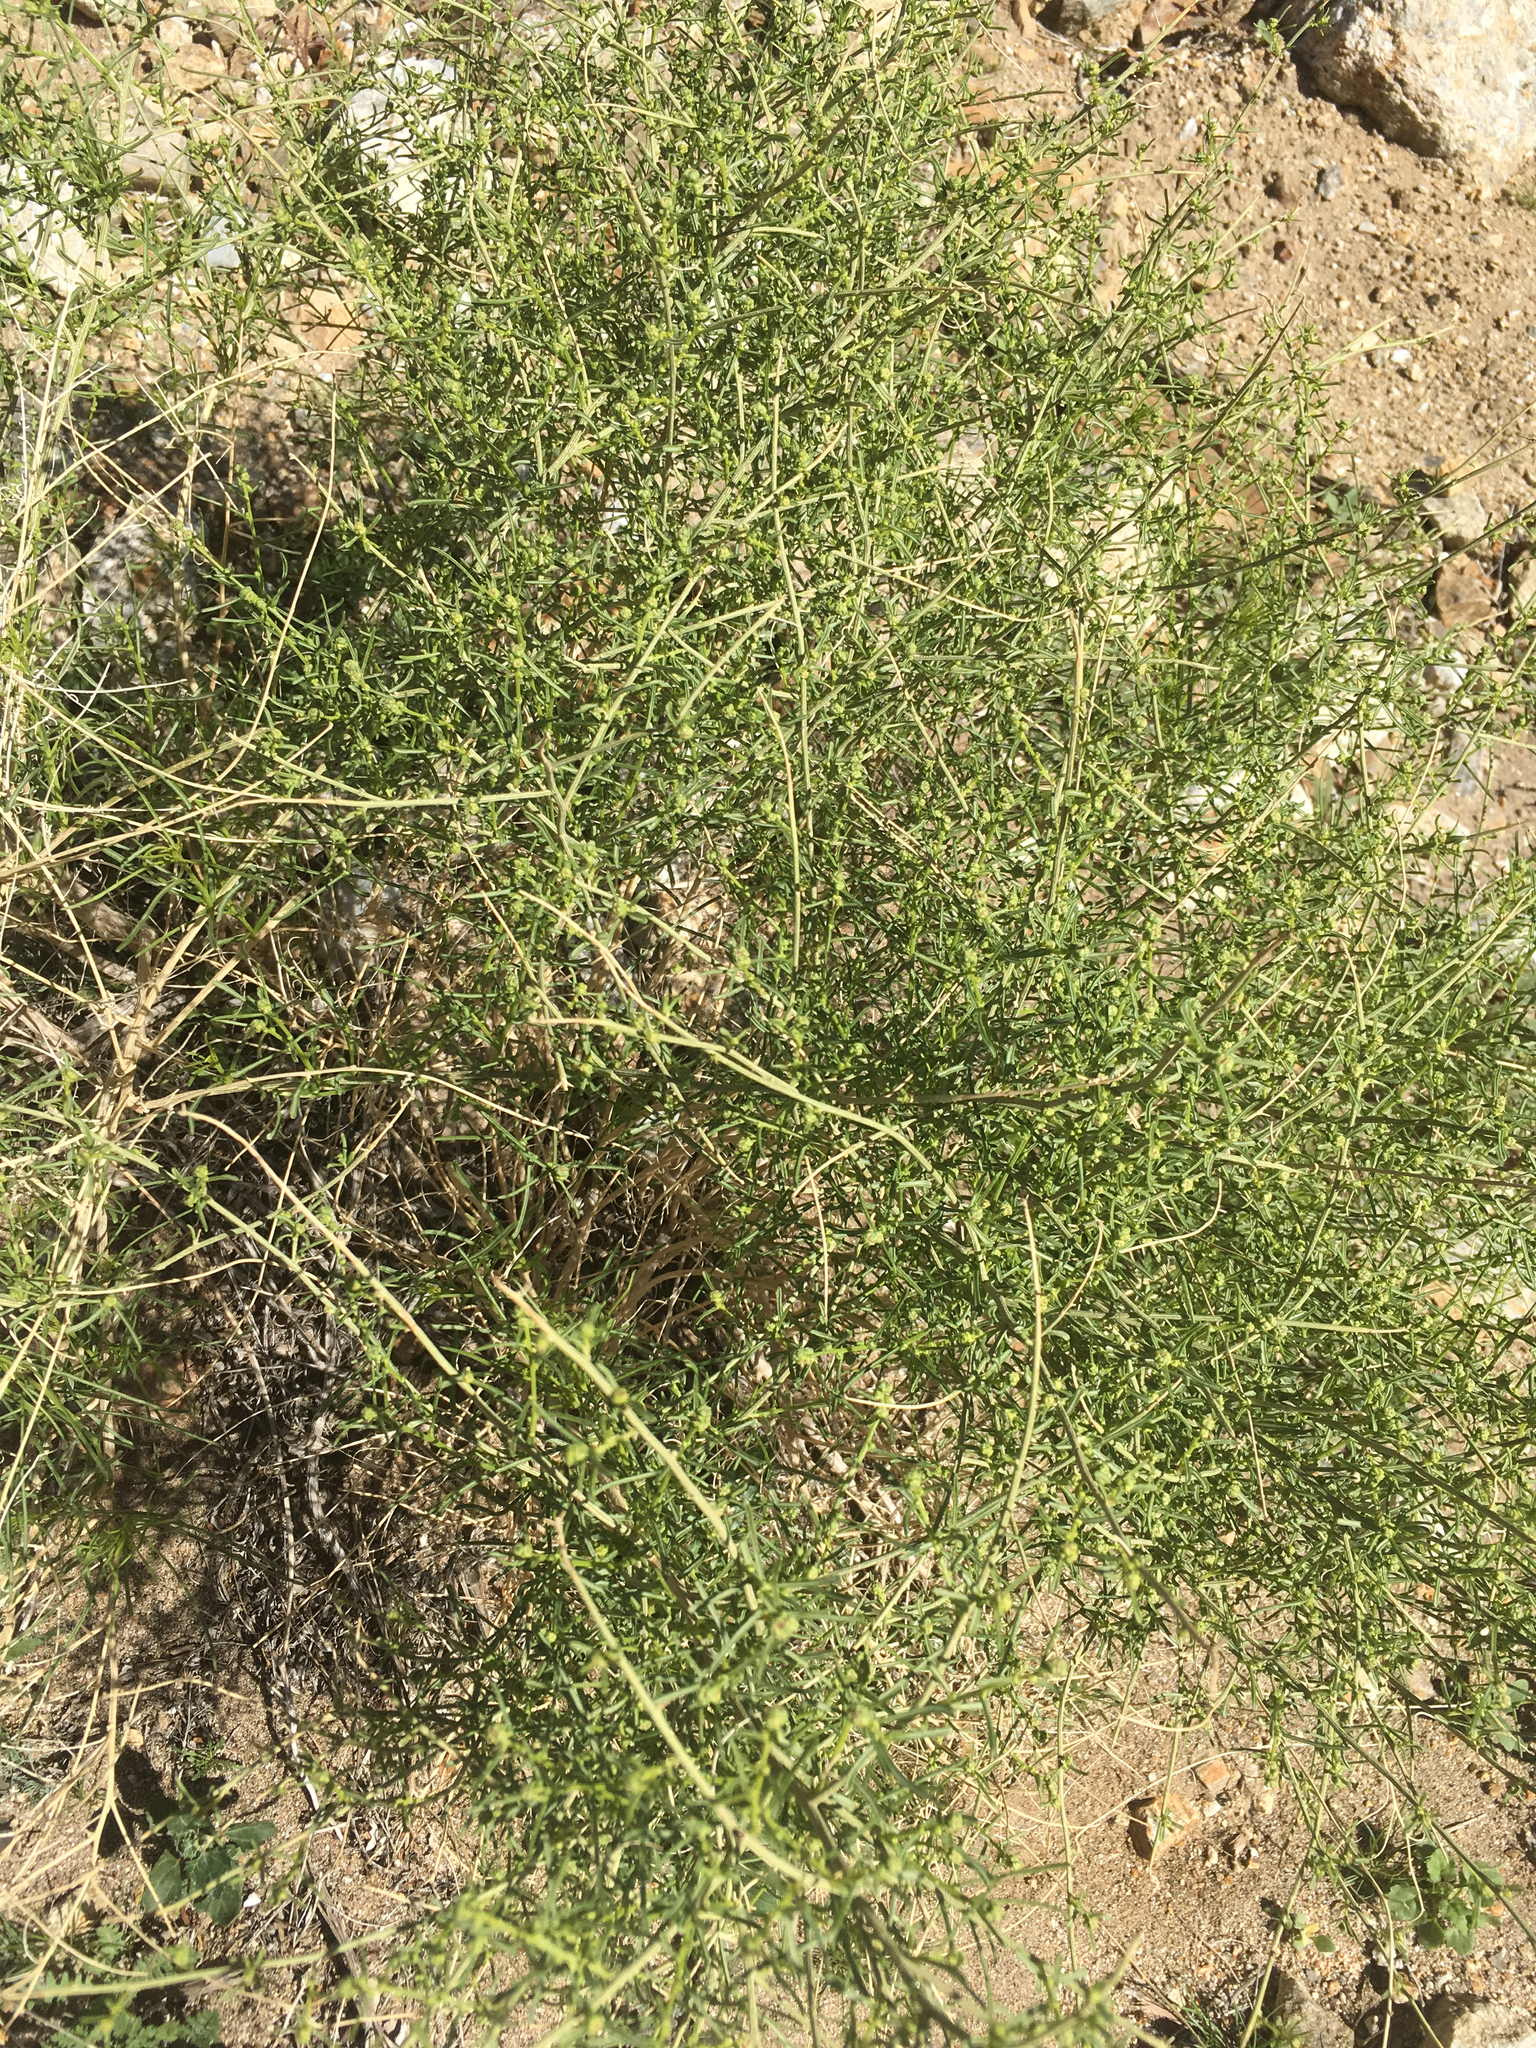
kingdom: Plantae
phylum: Tracheophyta
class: Magnoliopsida
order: Asterales
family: Asteraceae
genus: Ambrosia
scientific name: Ambrosia salsola
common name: Burrobrush
